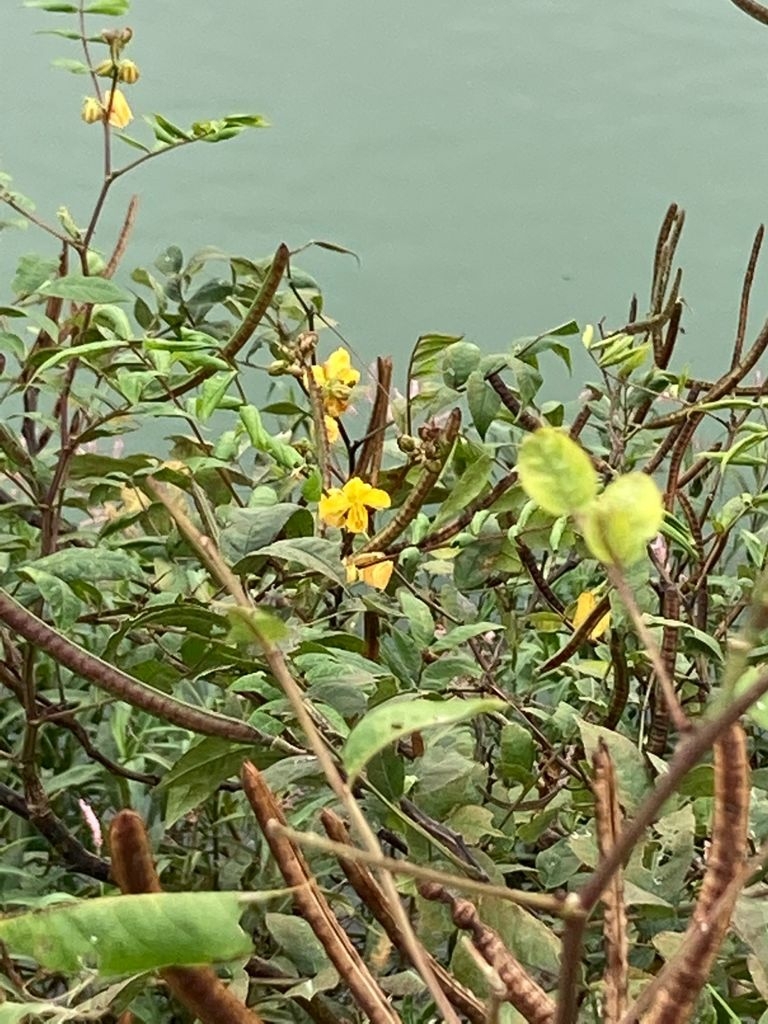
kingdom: Plantae
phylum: Tracheophyta
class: Magnoliopsida
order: Fabales
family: Fabaceae
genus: Senna
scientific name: Senna occidentalis
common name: Septicweed
